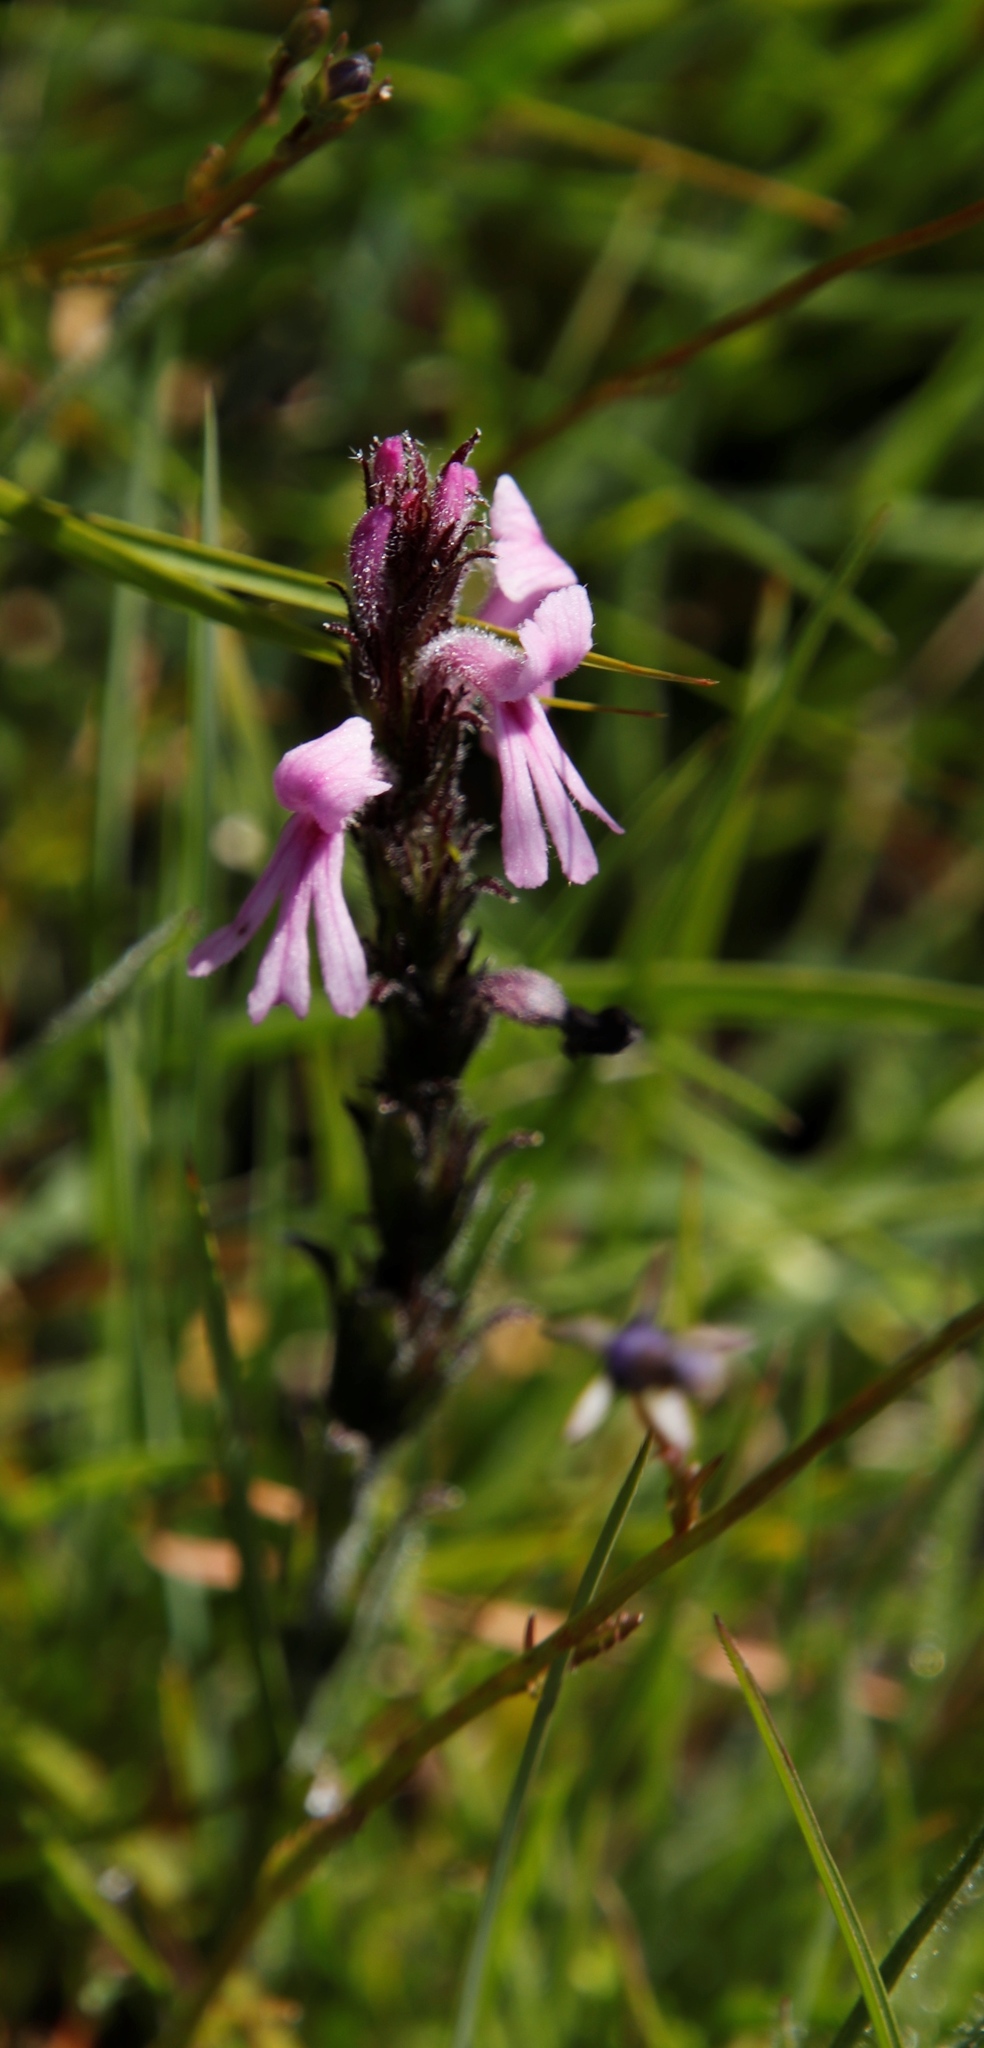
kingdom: Plantae
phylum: Tracheophyta
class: Magnoliopsida
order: Lamiales
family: Orobanchaceae
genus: Striga
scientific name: Striga bilabiata
